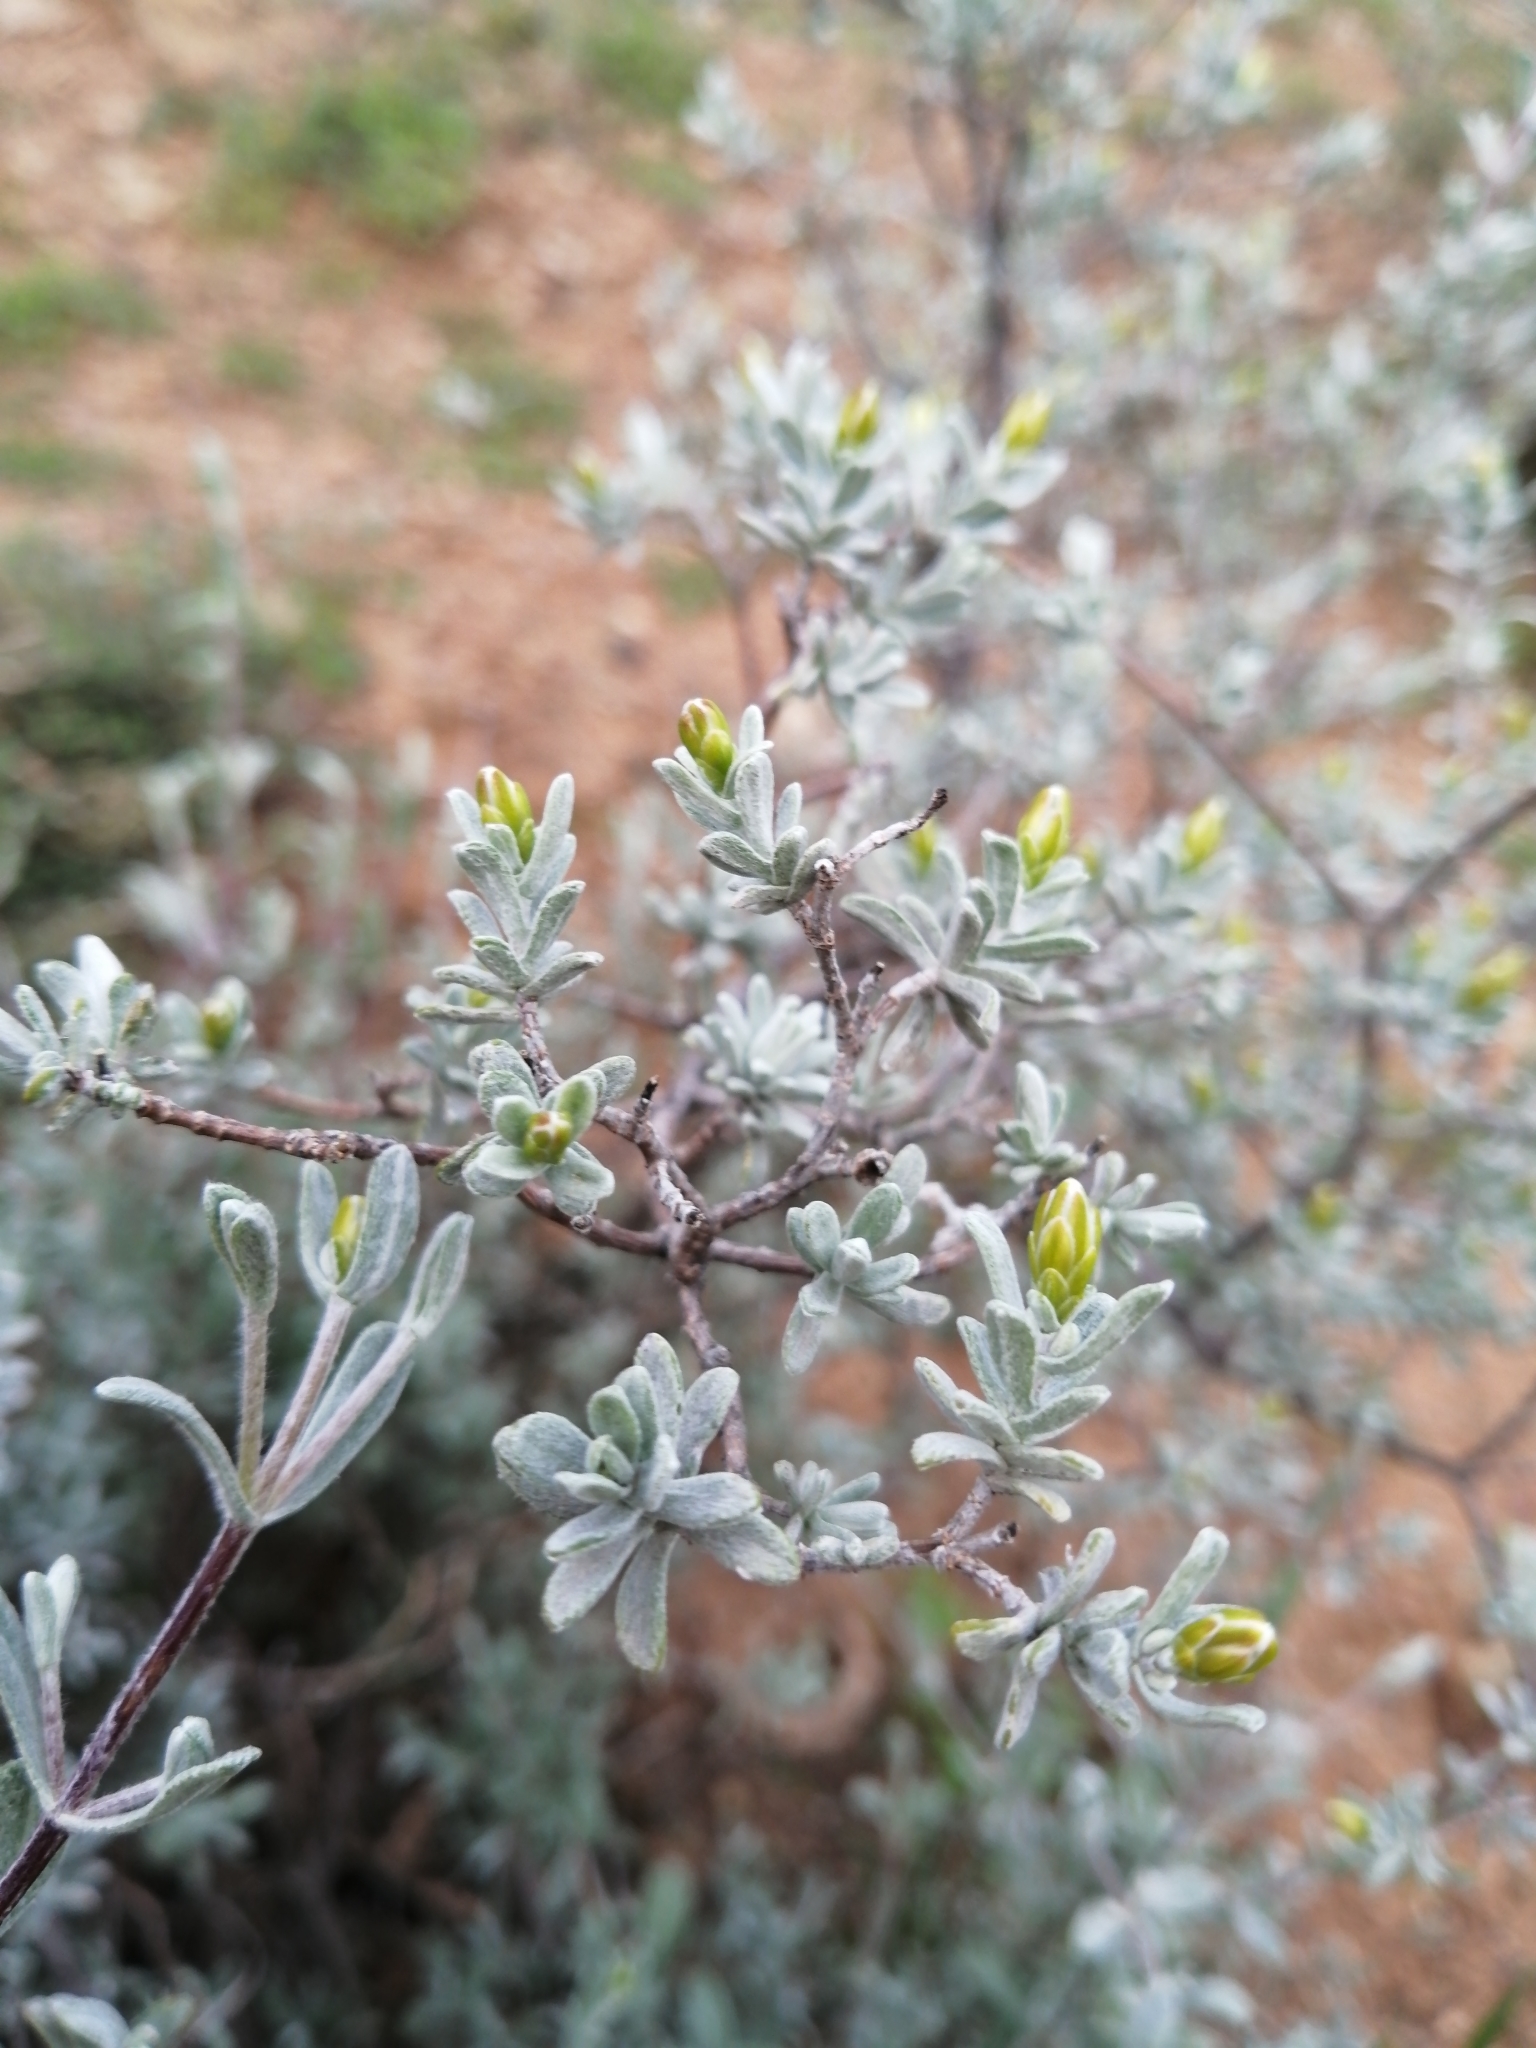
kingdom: Plantae
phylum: Tracheophyta
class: Magnoliopsida
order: Asterales
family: Asteraceae
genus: Pteronia
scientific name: Pteronia incana
